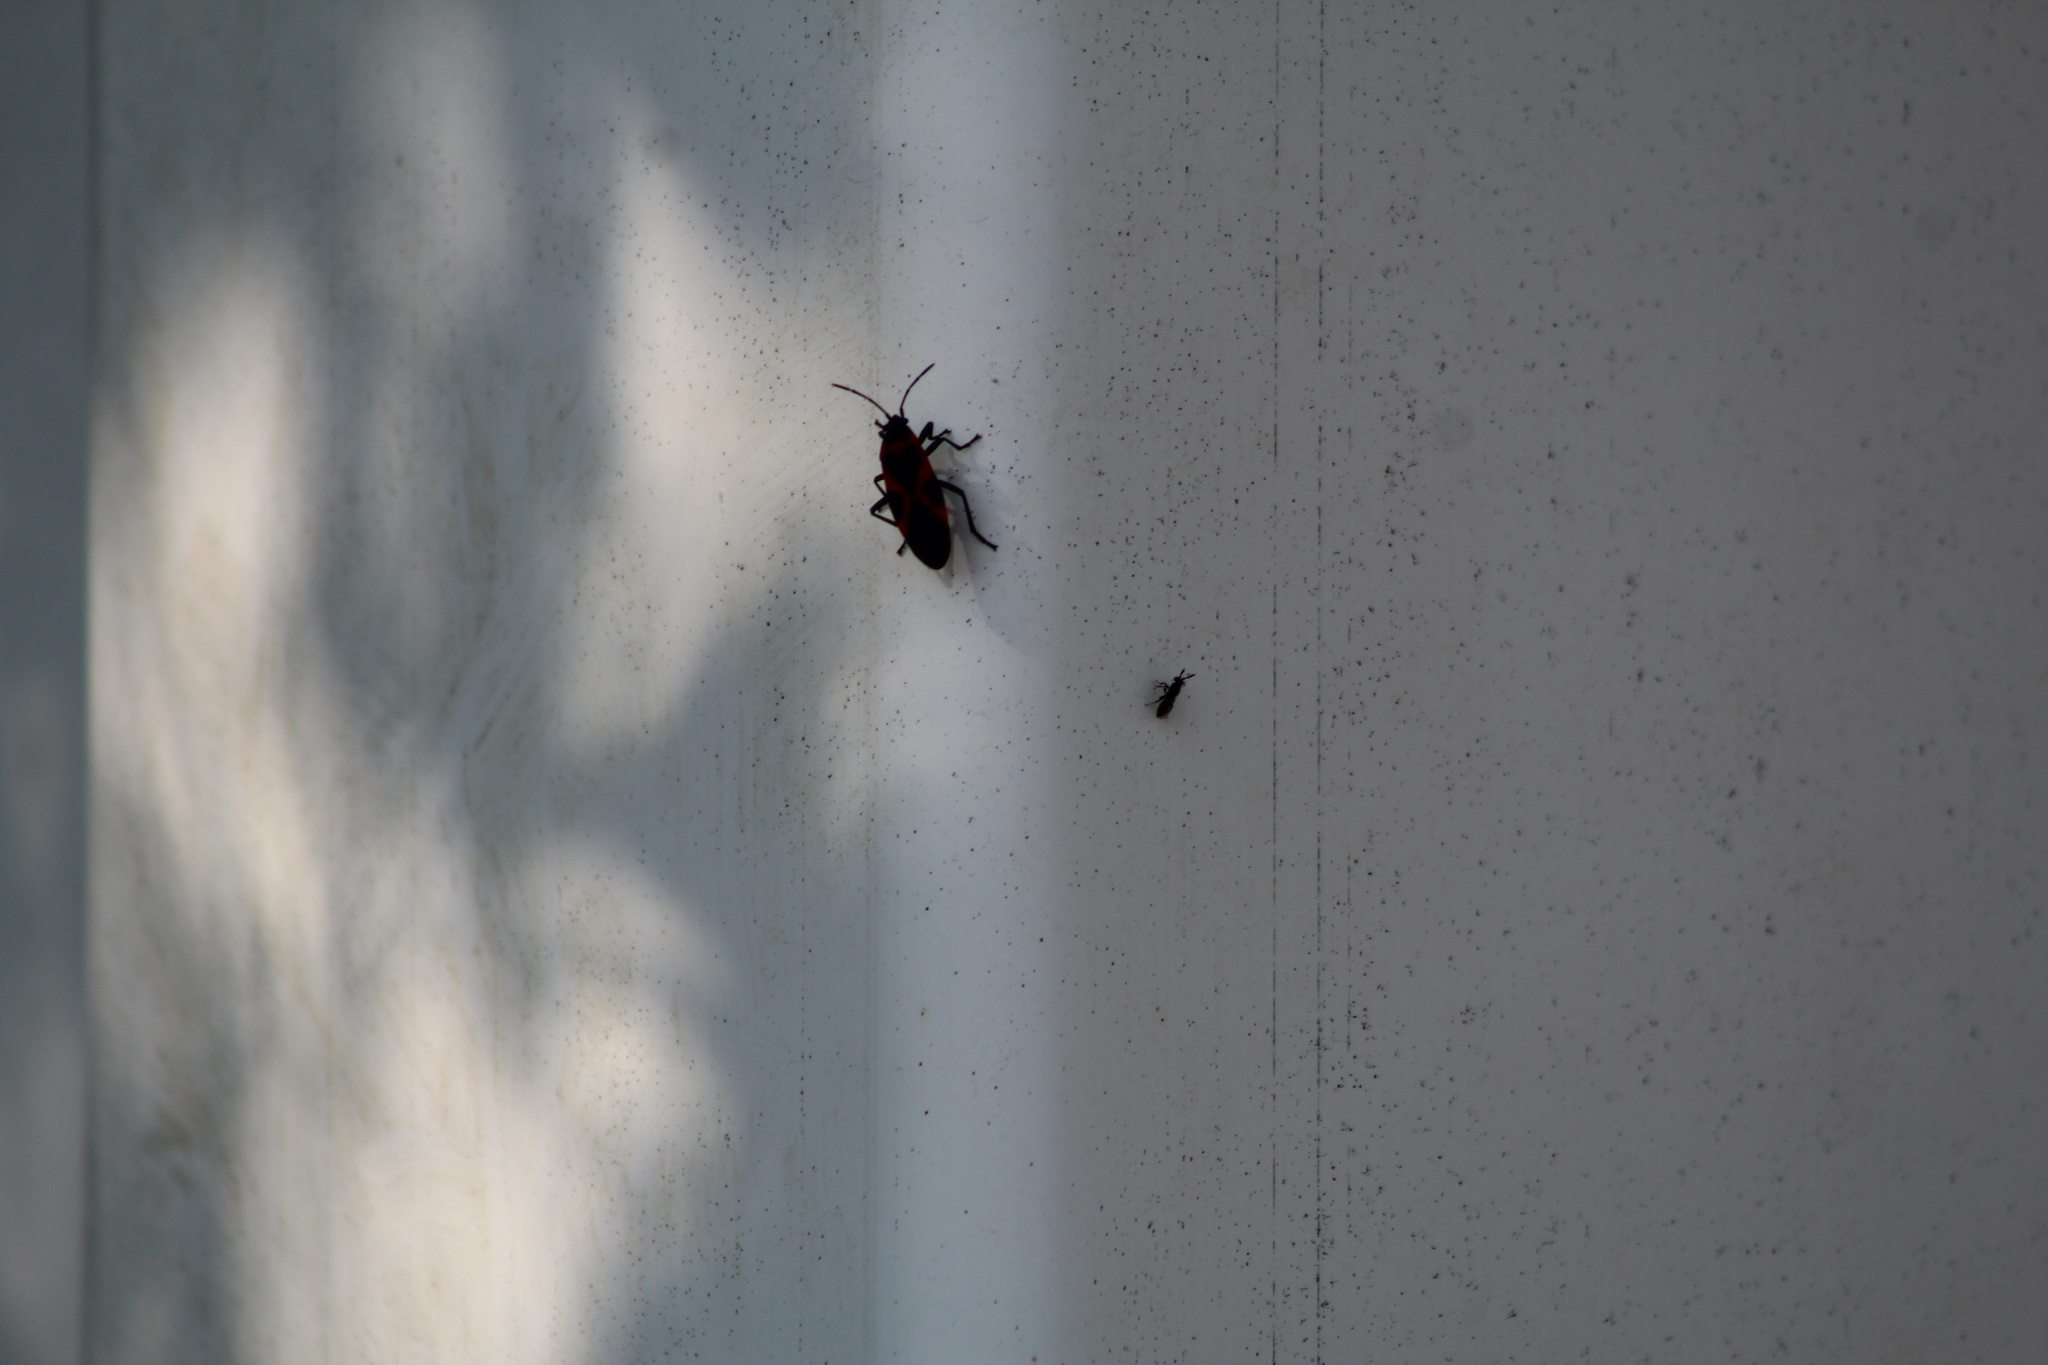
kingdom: Animalia
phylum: Arthropoda
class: Insecta
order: Hemiptera
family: Lygaeidae
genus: Lygaeus
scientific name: Lygaeus kalmii
